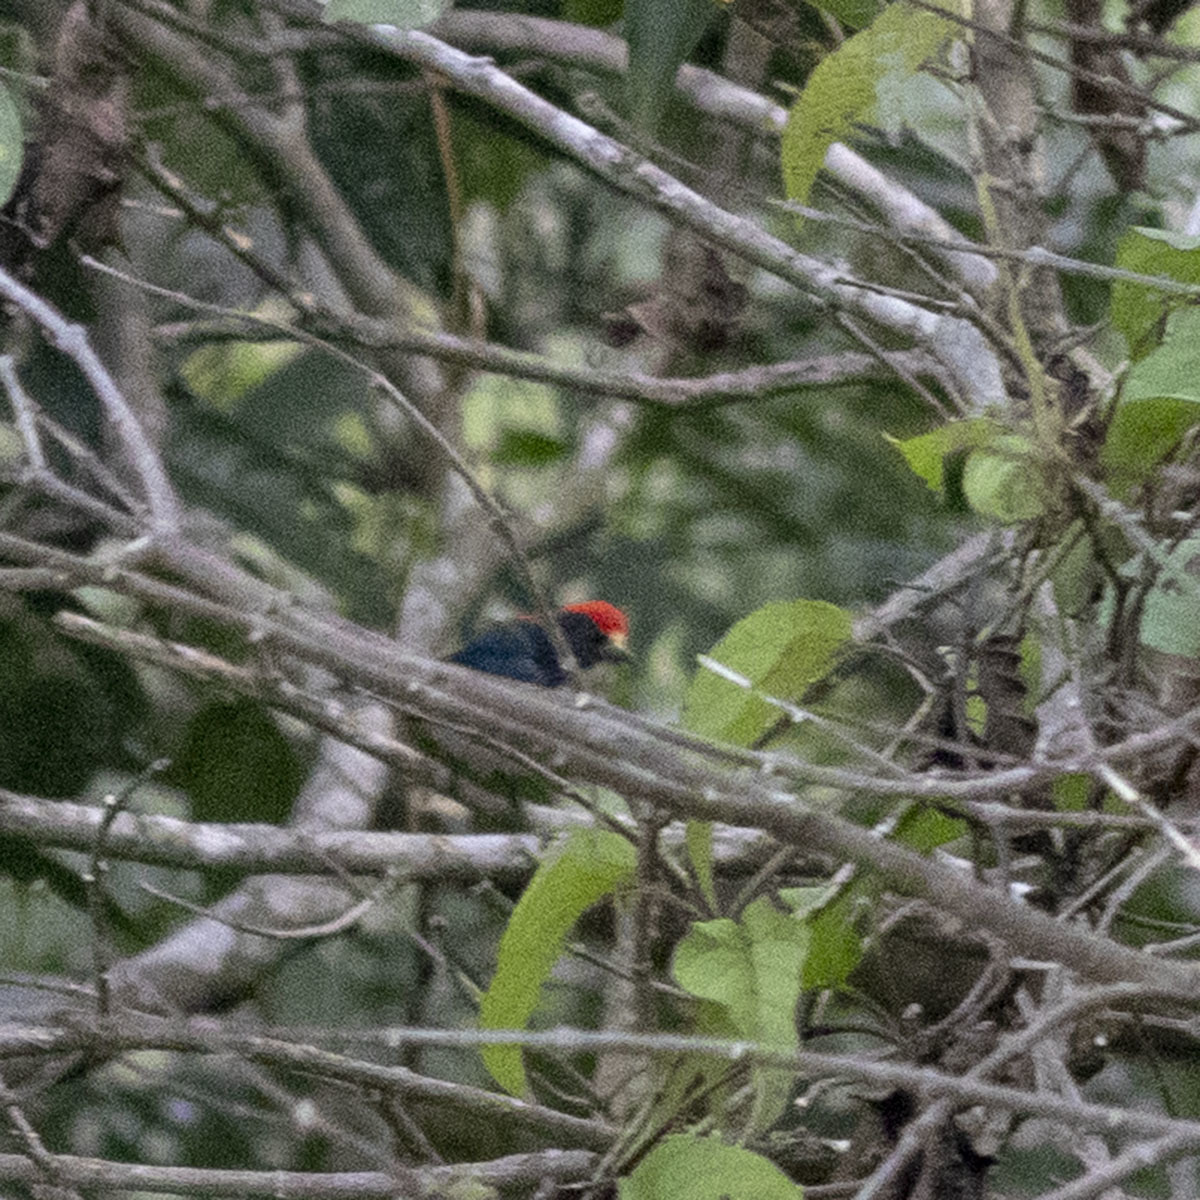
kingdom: Animalia
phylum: Chordata
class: Aves
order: Passeriformes
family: Dicaeidae
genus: Dicaeum
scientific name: Dicaeum cruentatum
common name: Scarlet-backed flowerpecker
